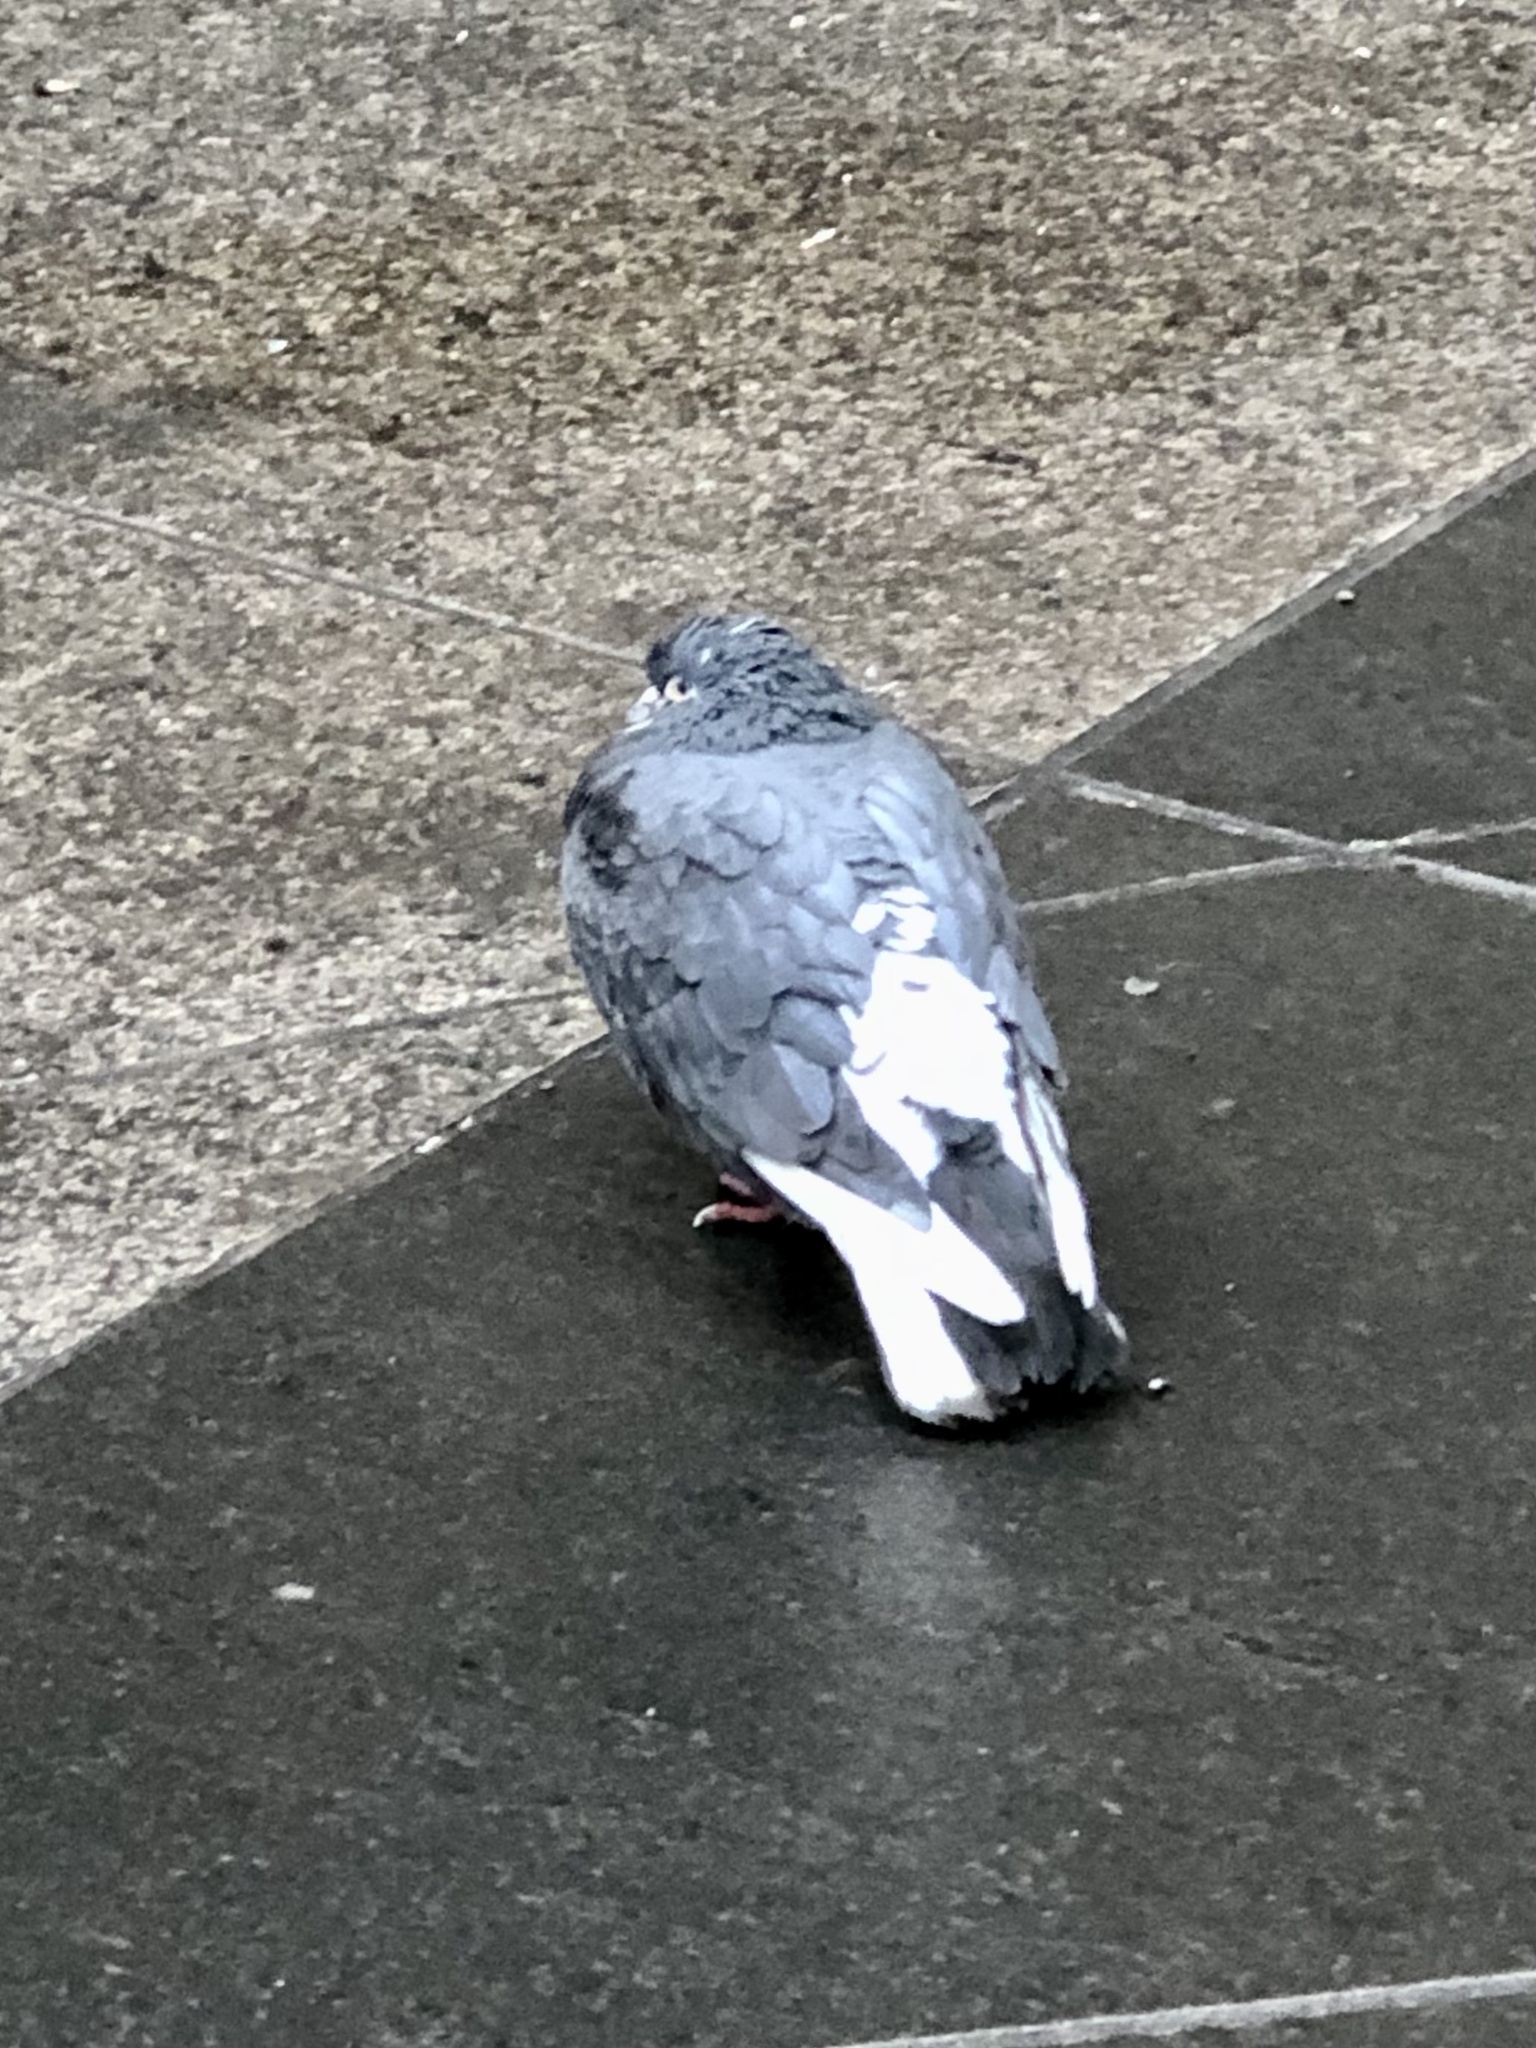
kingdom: Animalia
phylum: Chordata
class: Aves
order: Columbiformes
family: Columbidae
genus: Columba
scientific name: Columba livia
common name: Rock pigeon
